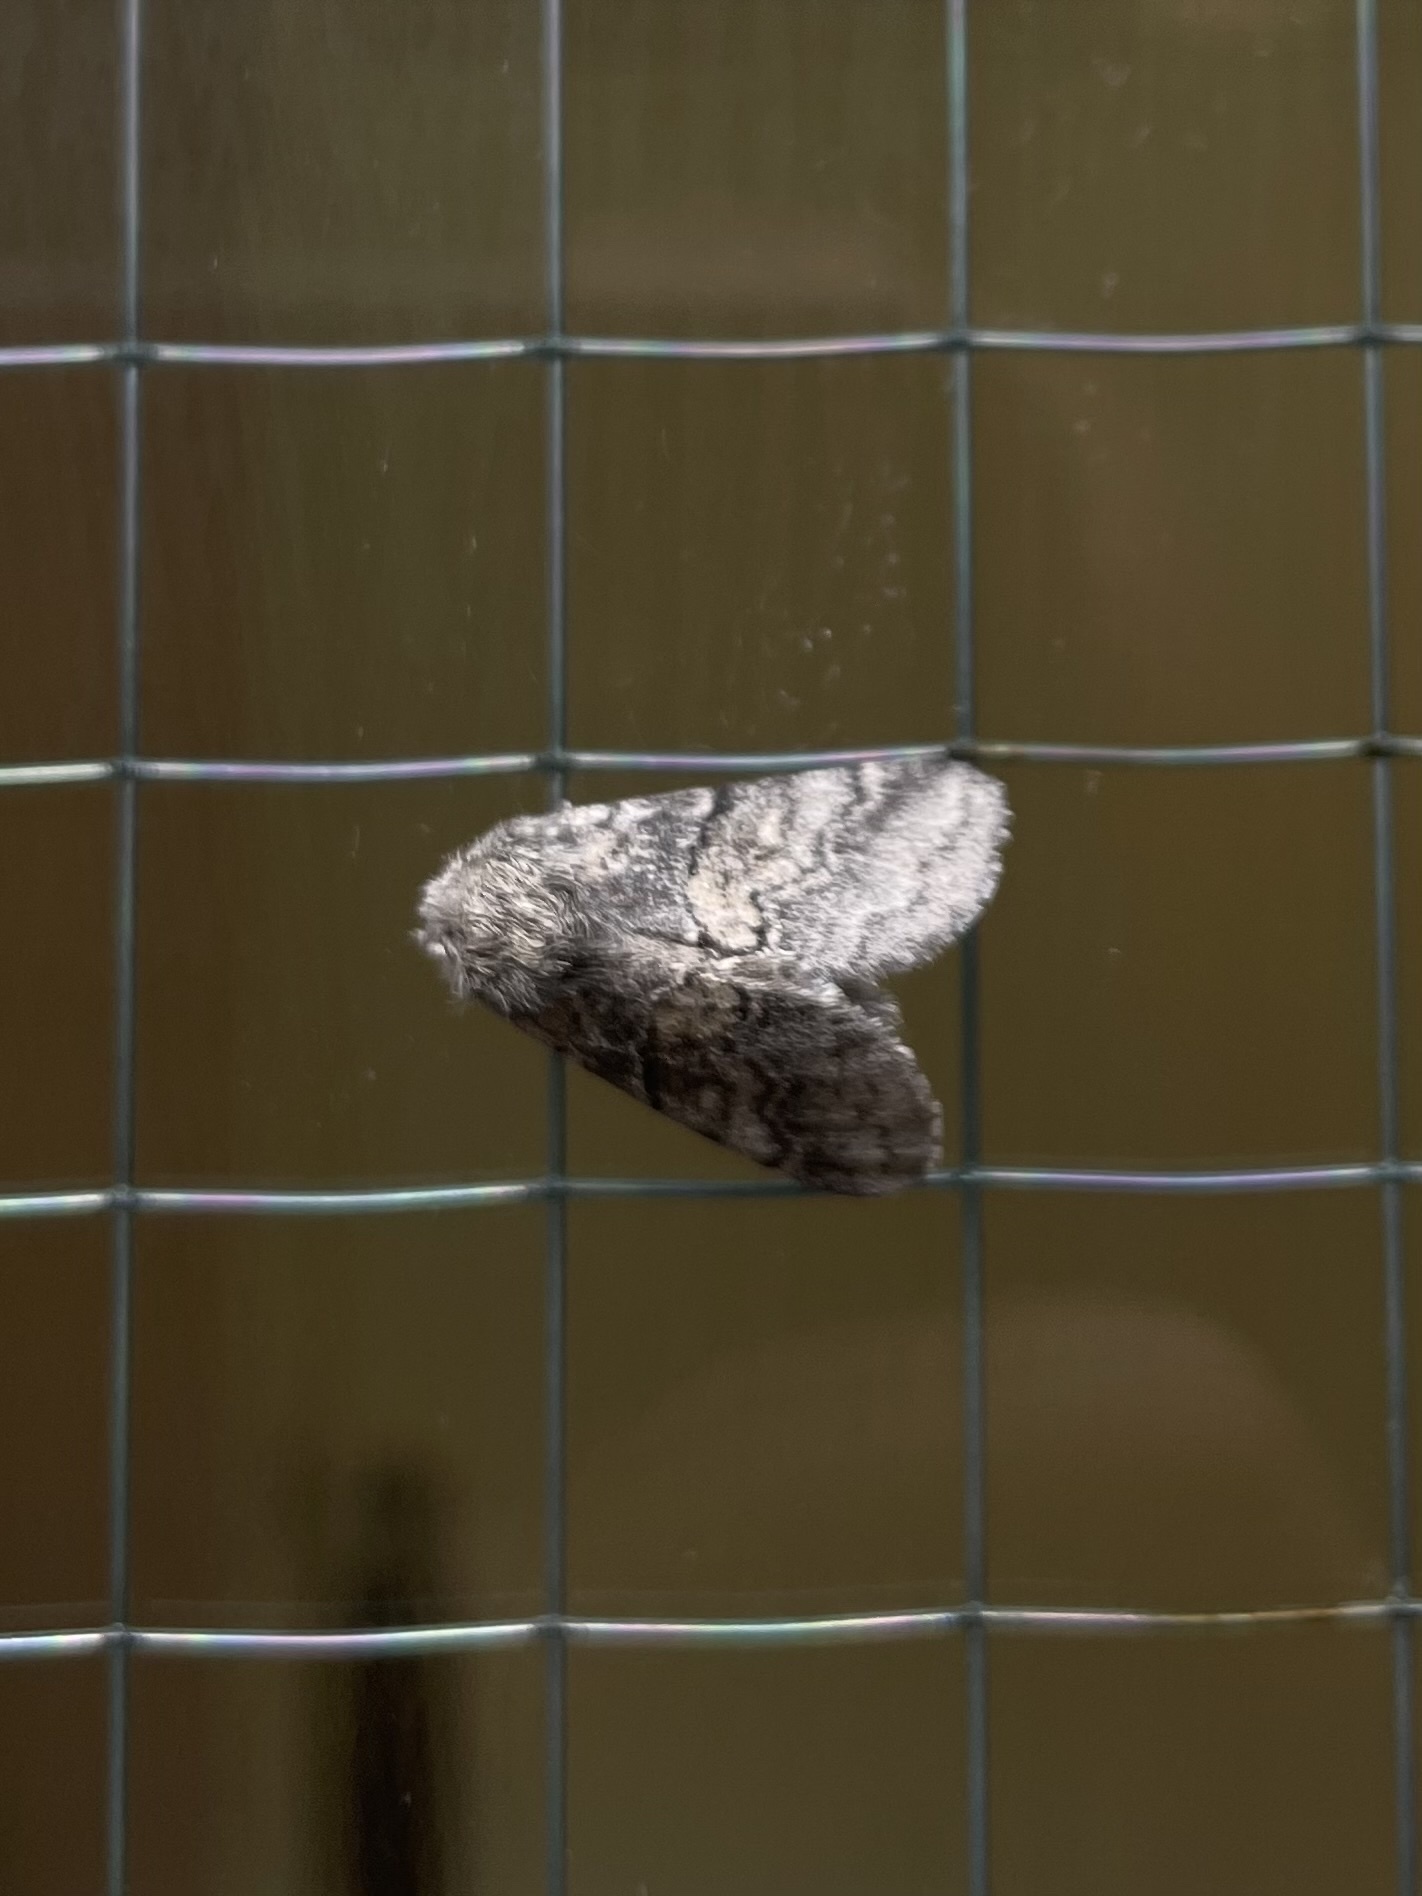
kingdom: Animalia
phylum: Arthropoda
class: Insecta
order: Lepidoptera
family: Notodontidae
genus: Gluphisia
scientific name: Gluphisia septentrionis
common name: Common gluphisia
